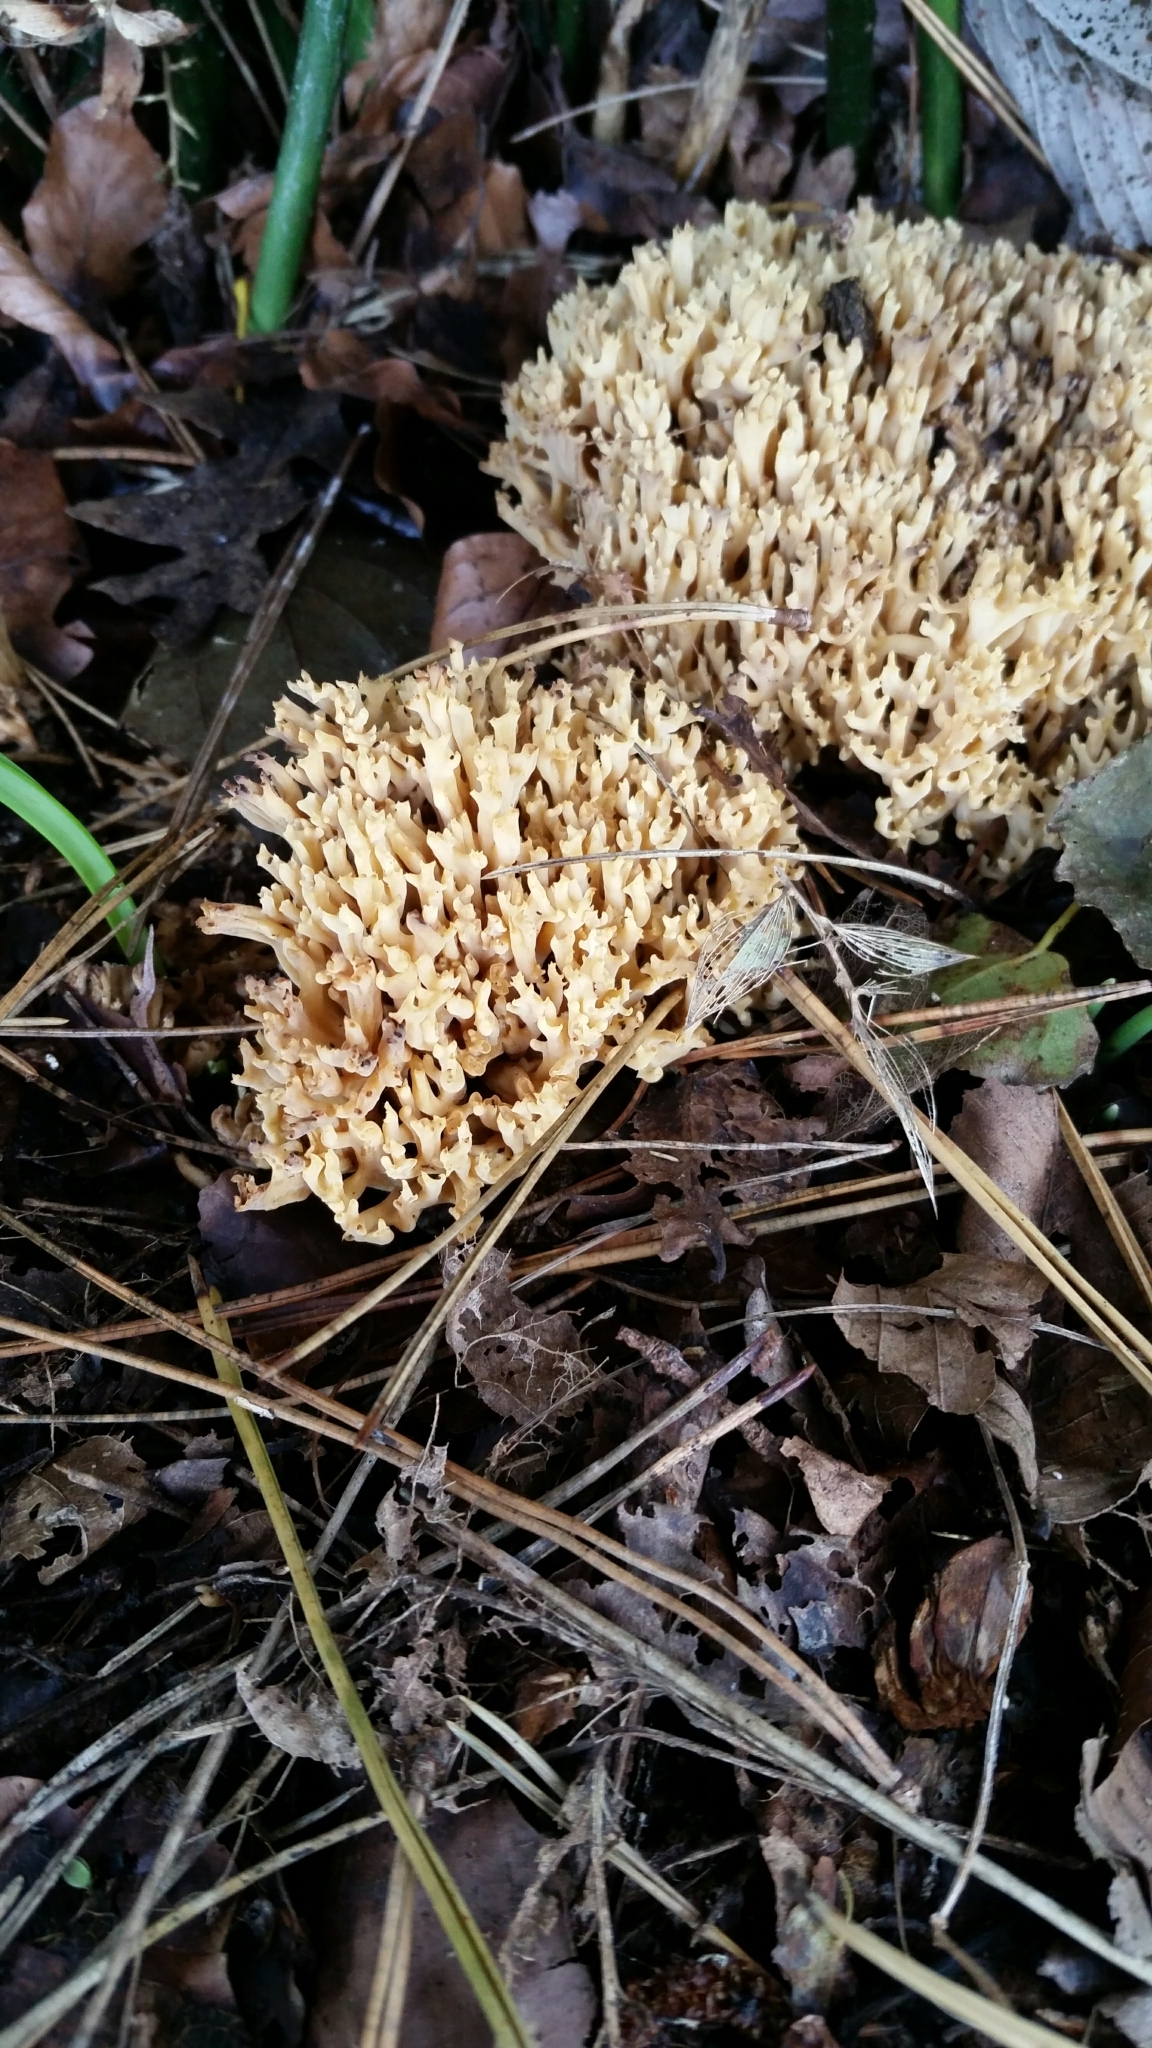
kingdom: Fungi
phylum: Basidiomycota
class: Agaricomycetes
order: Gomphales
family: Gomphaceae
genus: Ramaria
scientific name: Ramaria stricta
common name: Upright coral
